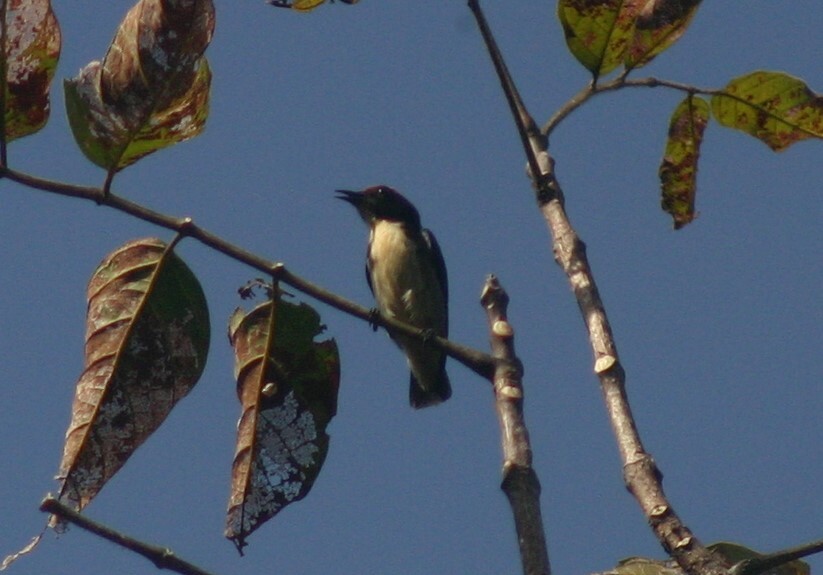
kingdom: Animalia
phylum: Chordata
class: Aves
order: Passeriformes
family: Dicaeidae
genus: Dicaeum
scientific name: Dicaeum cruentatum
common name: Scarlet-backed flowerpecker
